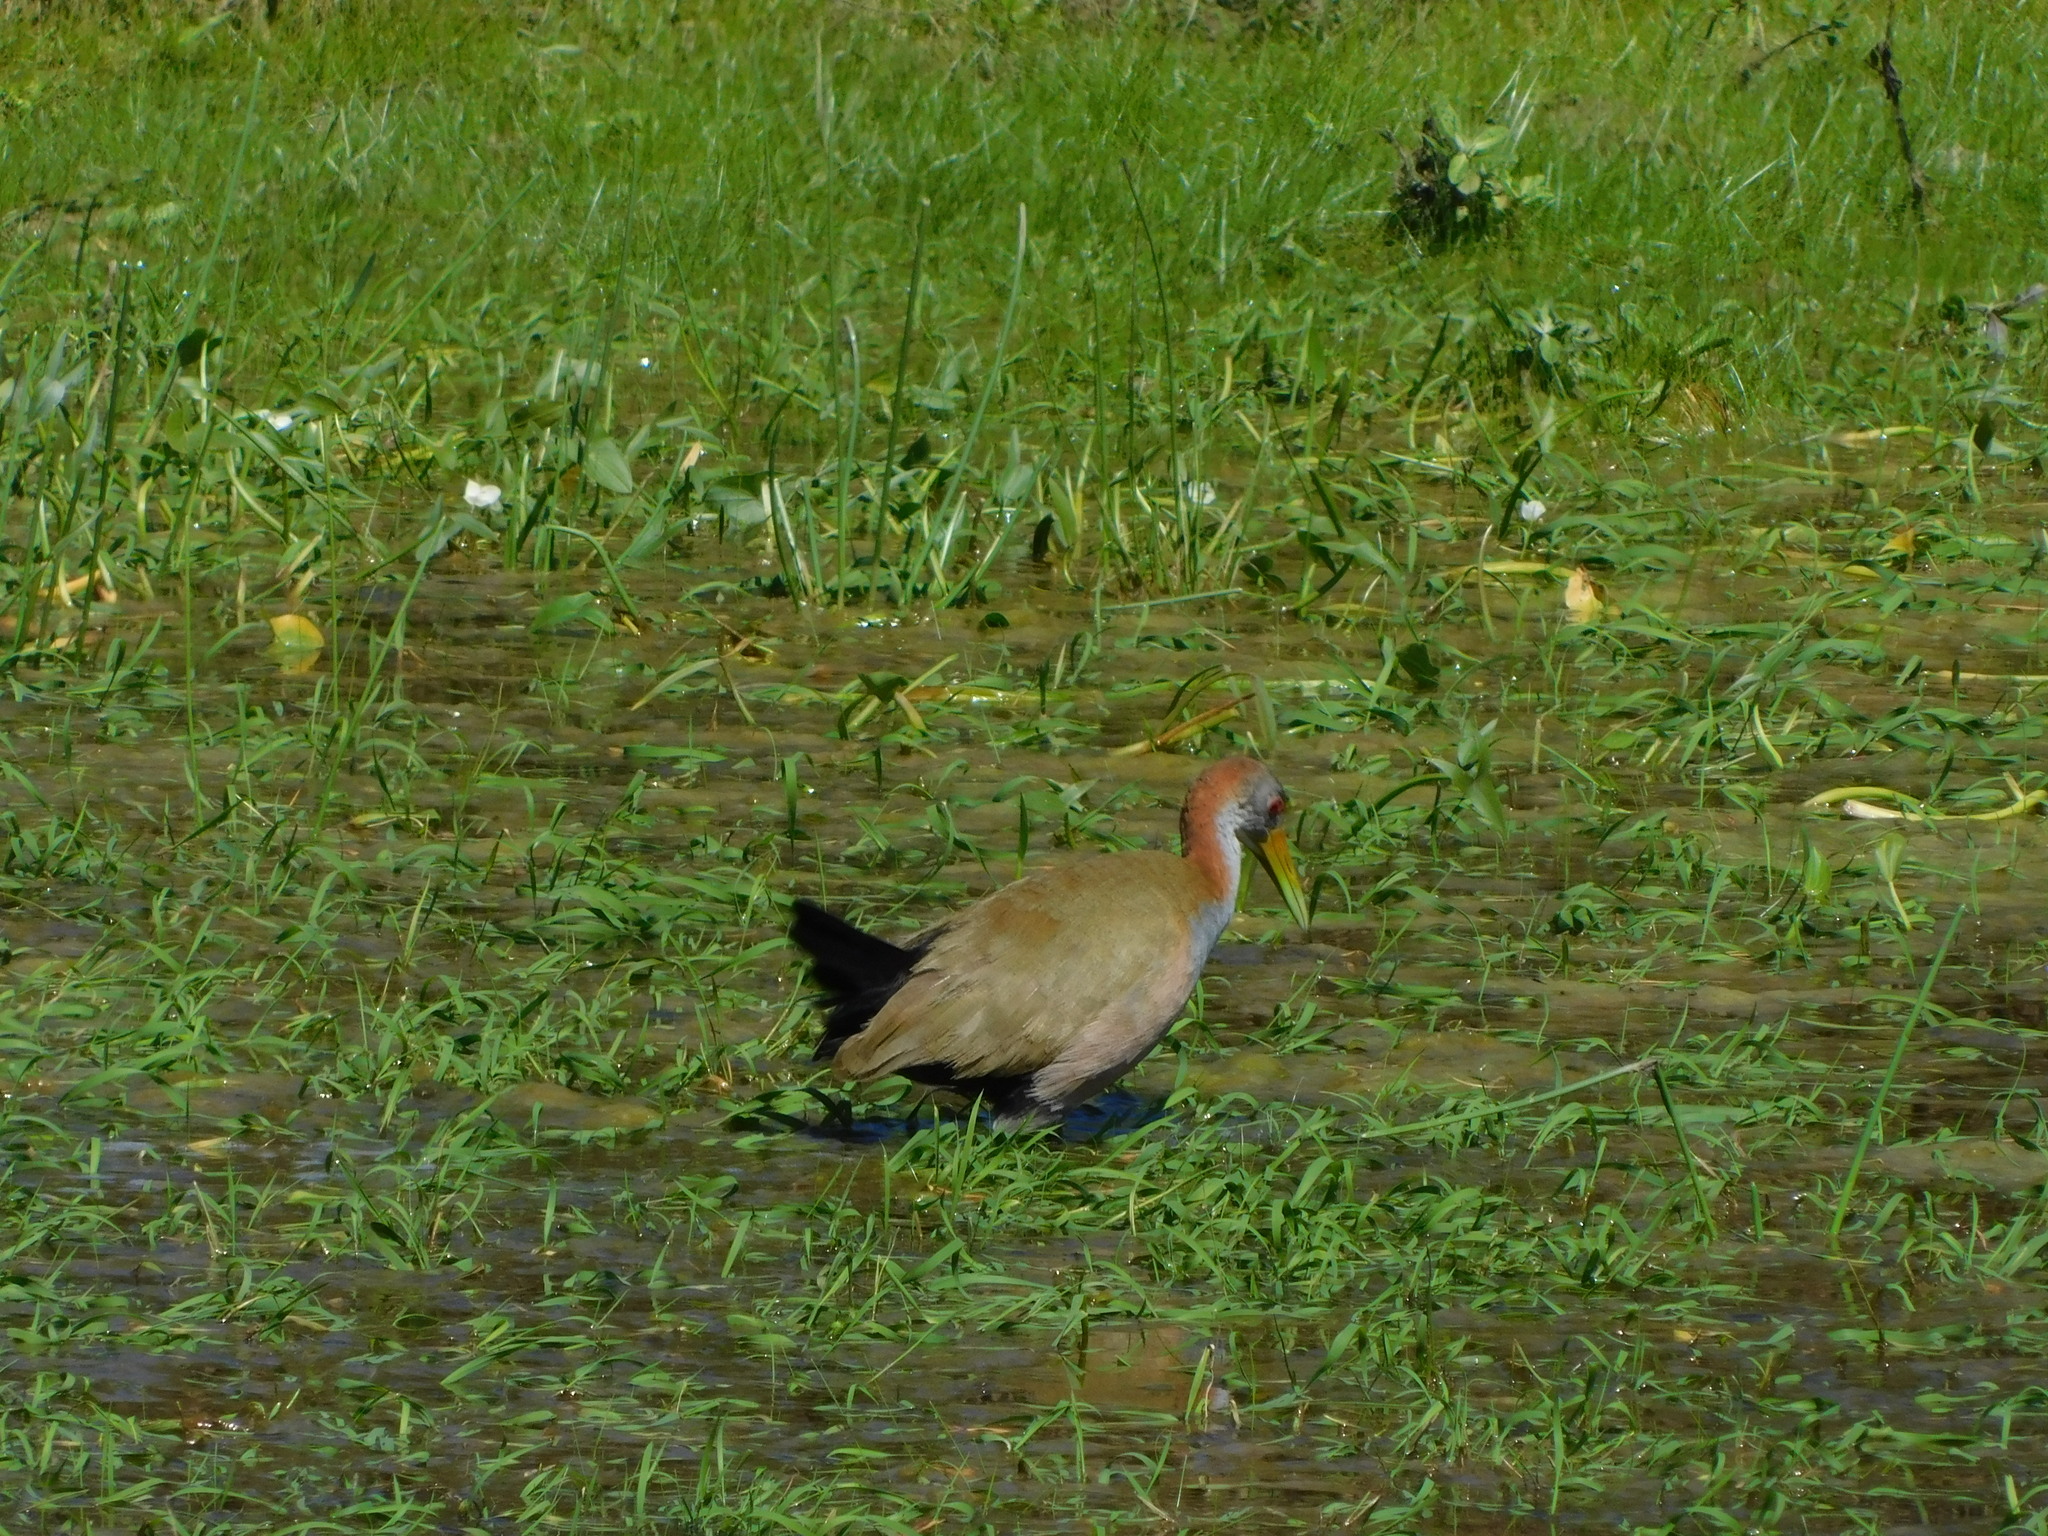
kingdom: Animalia
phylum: Chordata
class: Aves
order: Gruiformes
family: Rallidae
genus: Aramides
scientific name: Aramides ypecaha
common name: Giant wood rail
